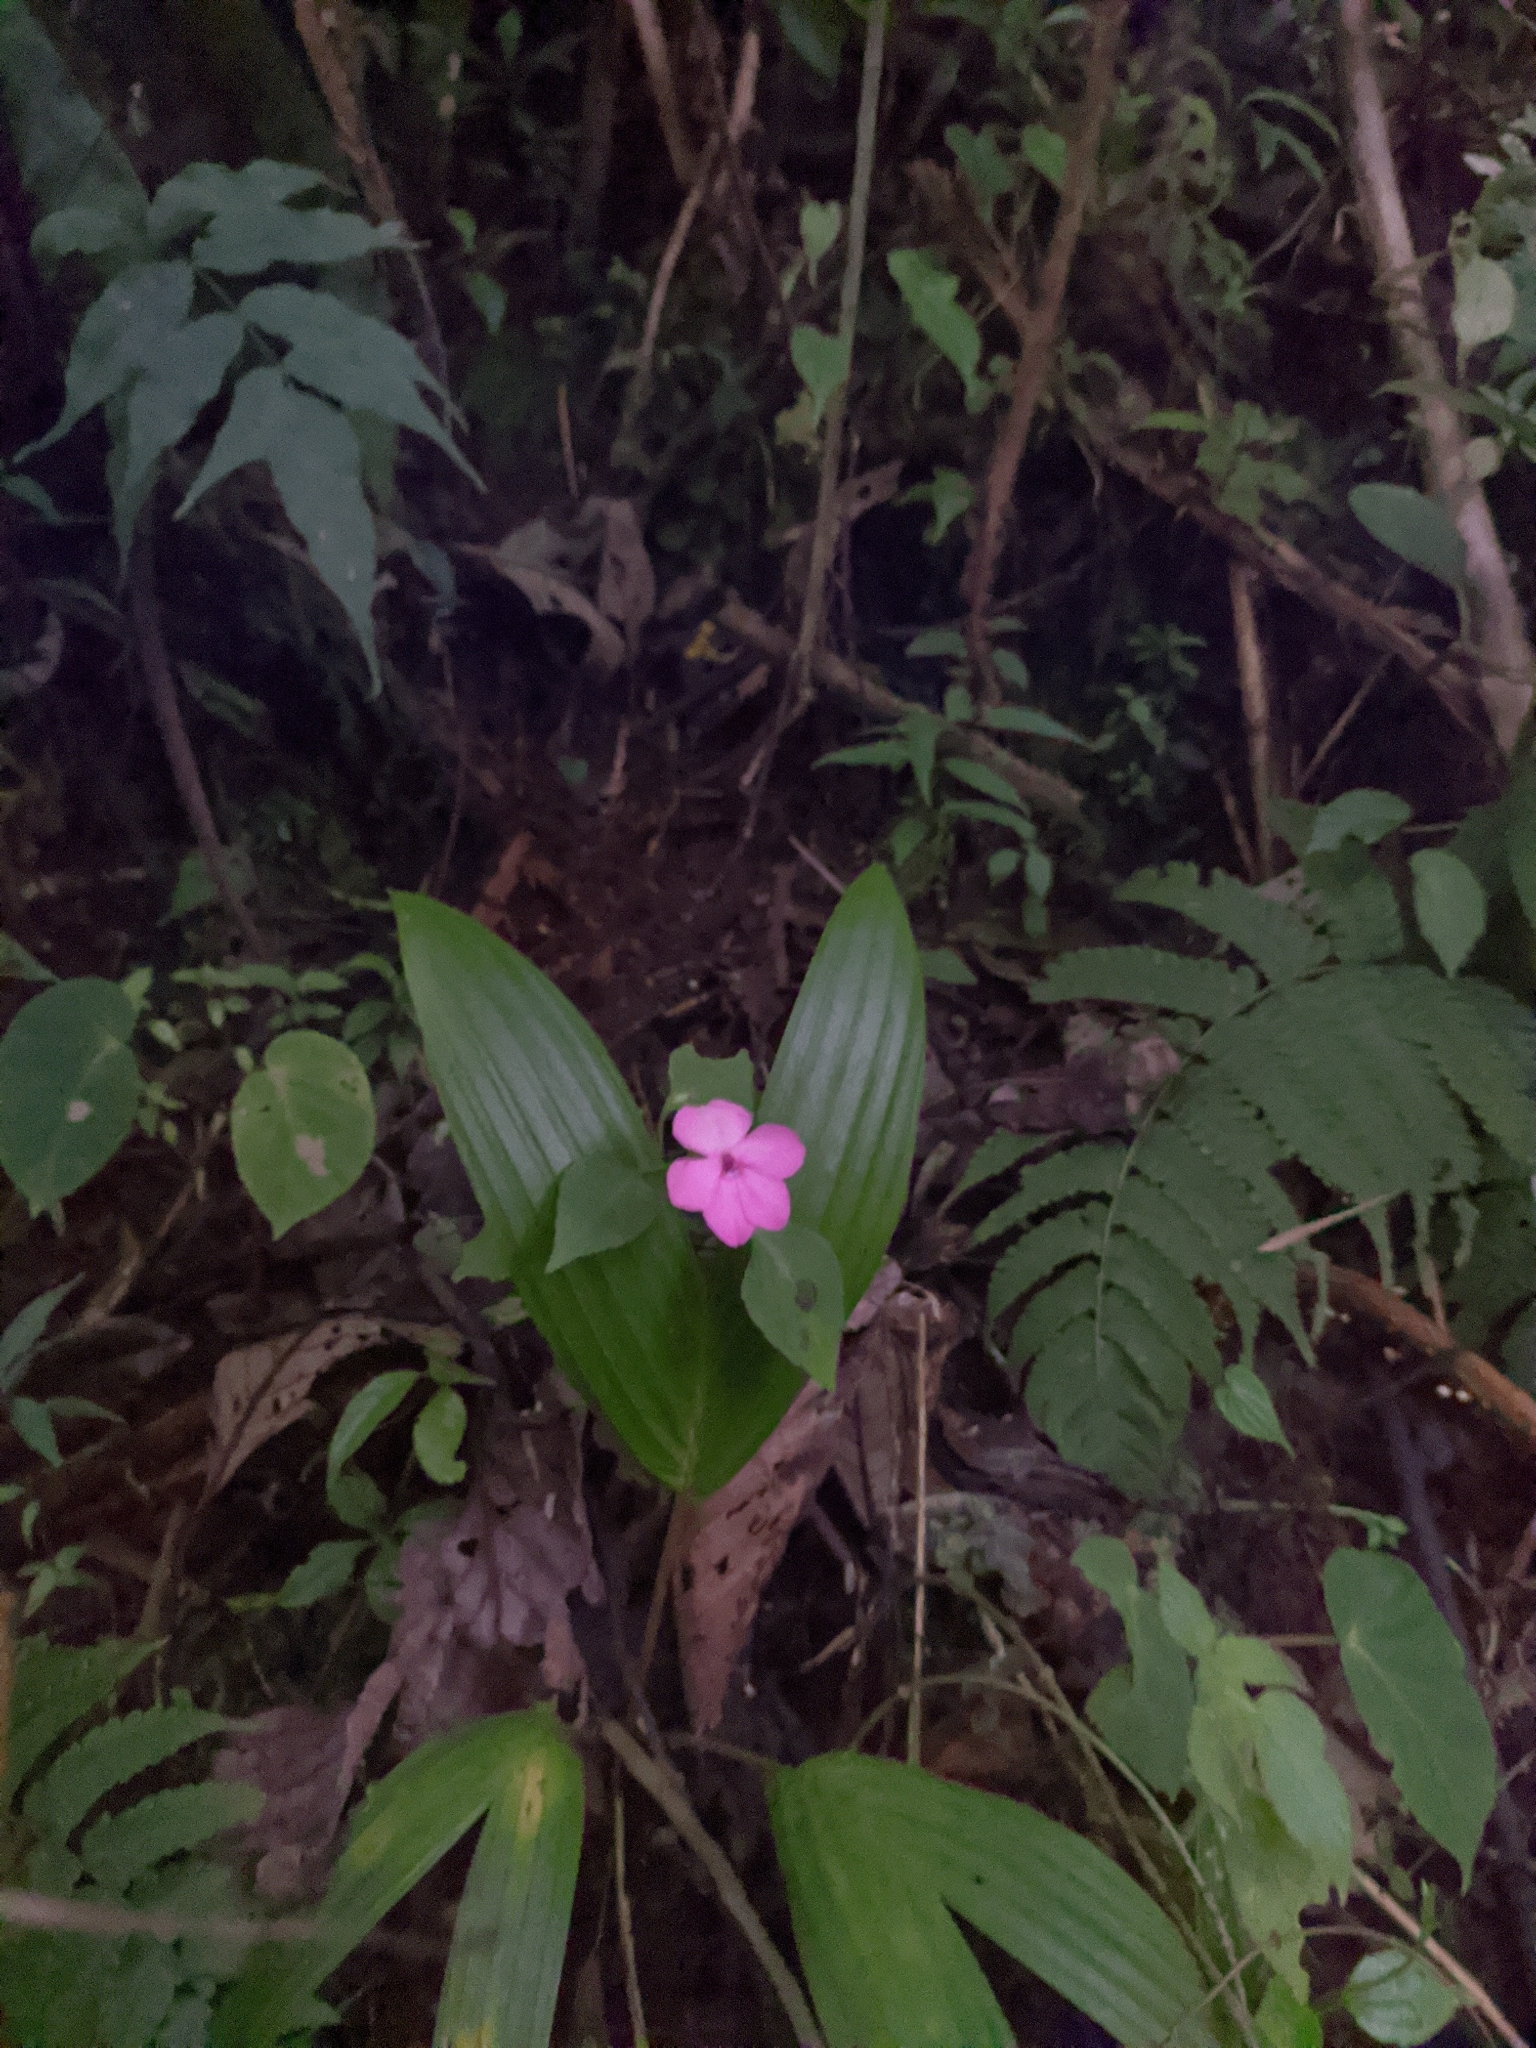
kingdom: Plantae
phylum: Tracheophyta
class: Magnoliopsida
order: Ericales
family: Balsaminaceae
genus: Impatiens
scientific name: Impatiens walleriana
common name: Buzzy lizzy
